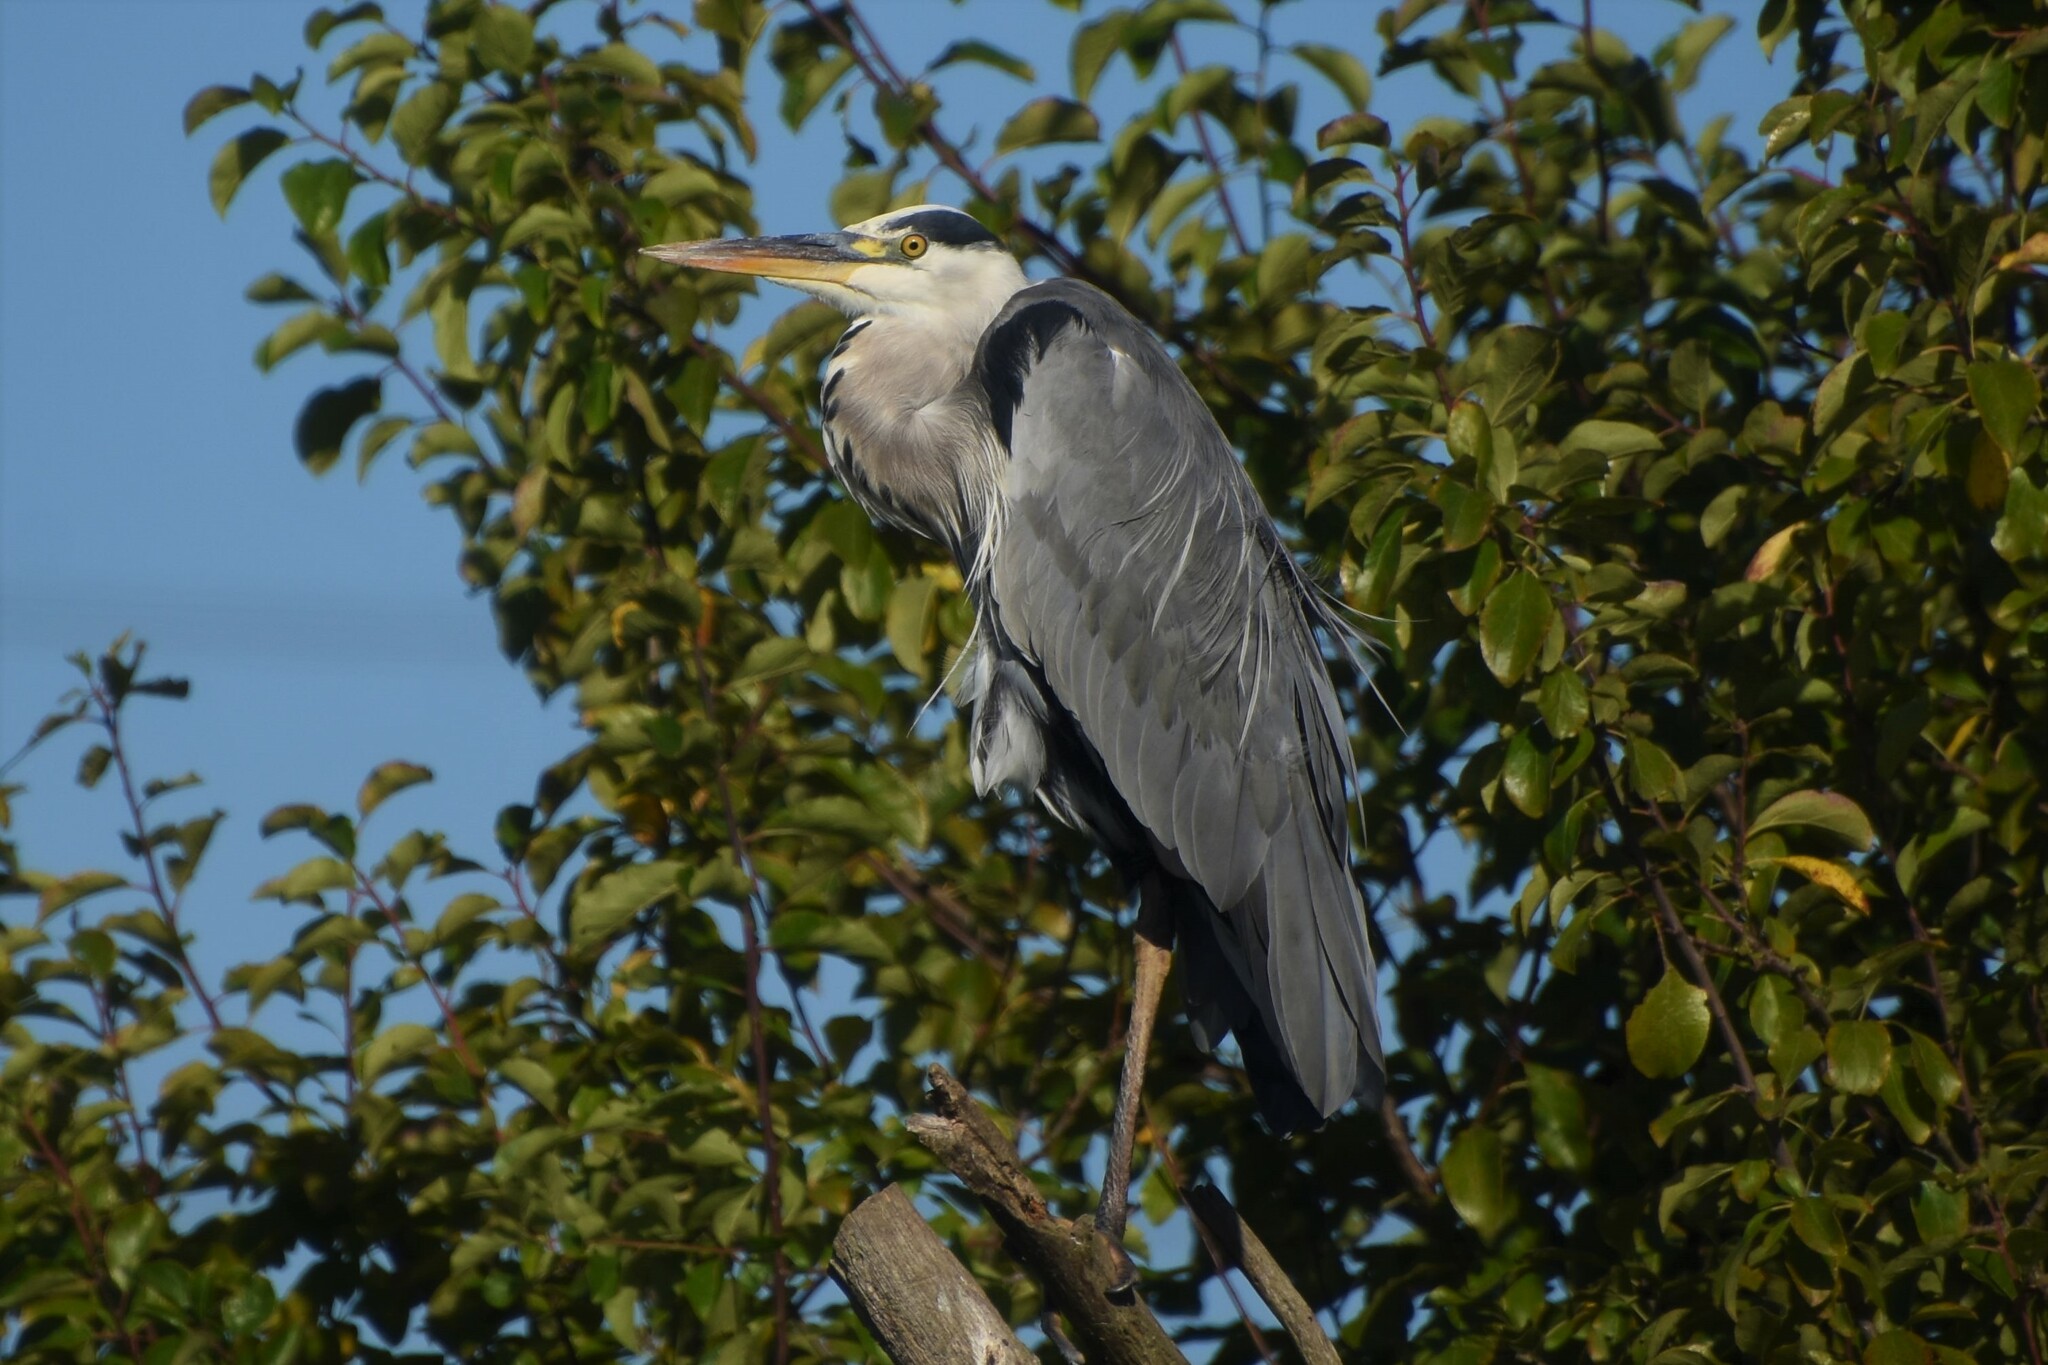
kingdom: Animalia
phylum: Chordata
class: Aves
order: Pelecaniformes
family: Ardeidae
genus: Ardea
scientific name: Ardea cinerea
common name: Grey heron
